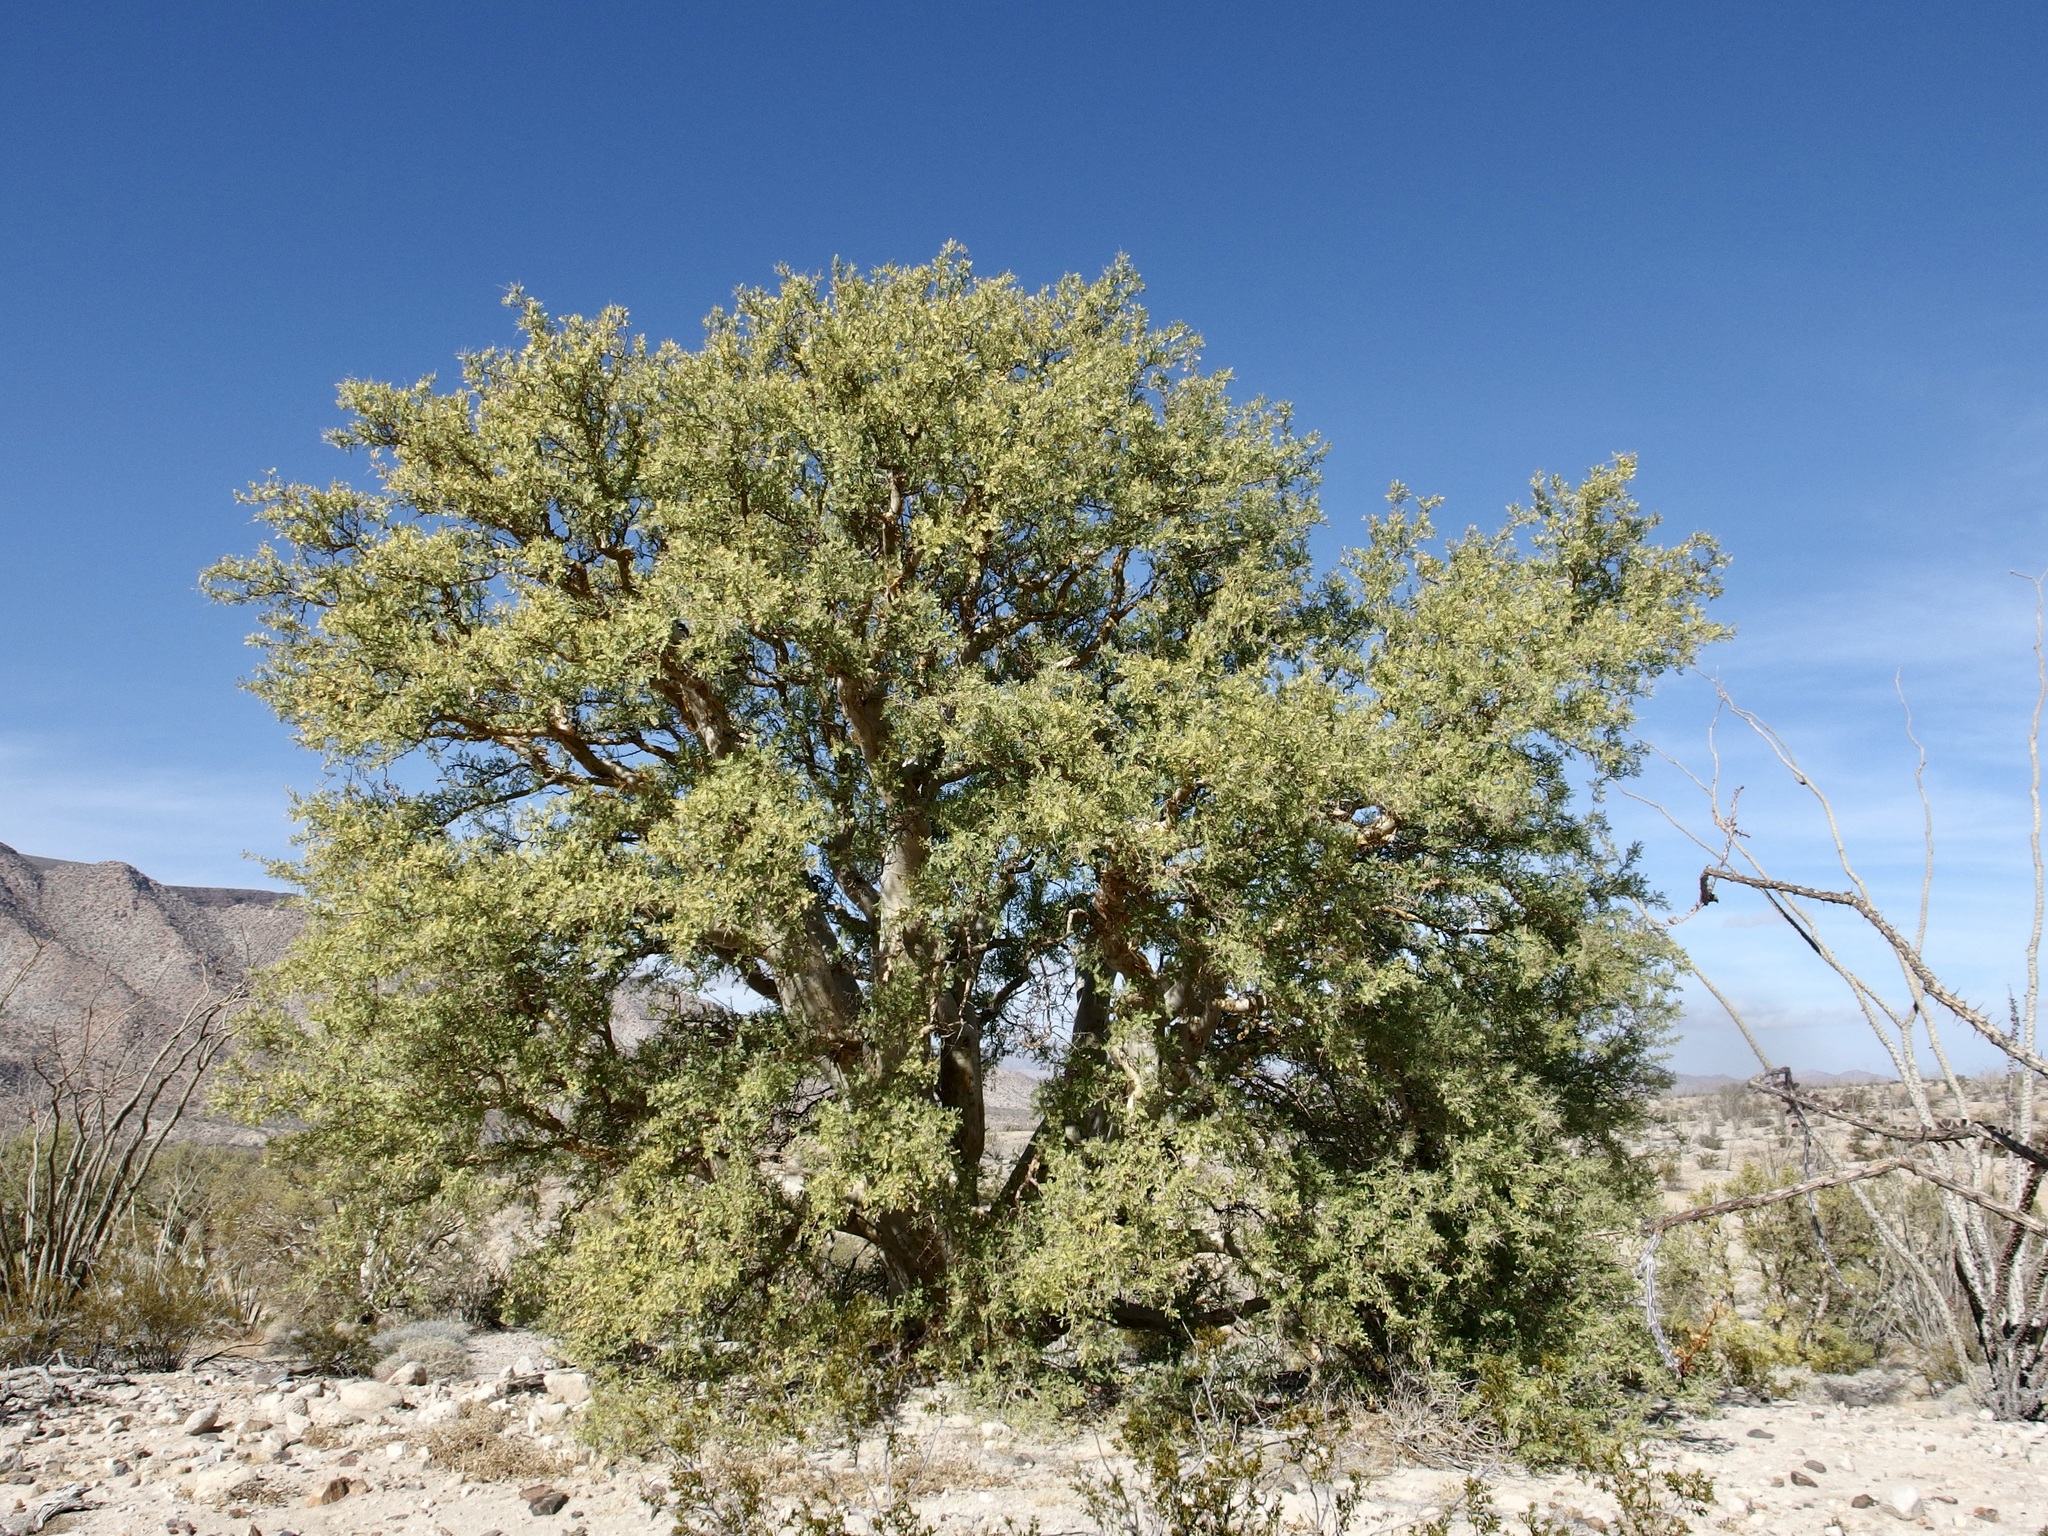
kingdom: Plantae
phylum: Tracheophyta
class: Magnoliopsida
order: Sapindales
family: Anacardiaceae
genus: Pachycormus
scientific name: Pachycormus discolor
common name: Succulent elephant trees
